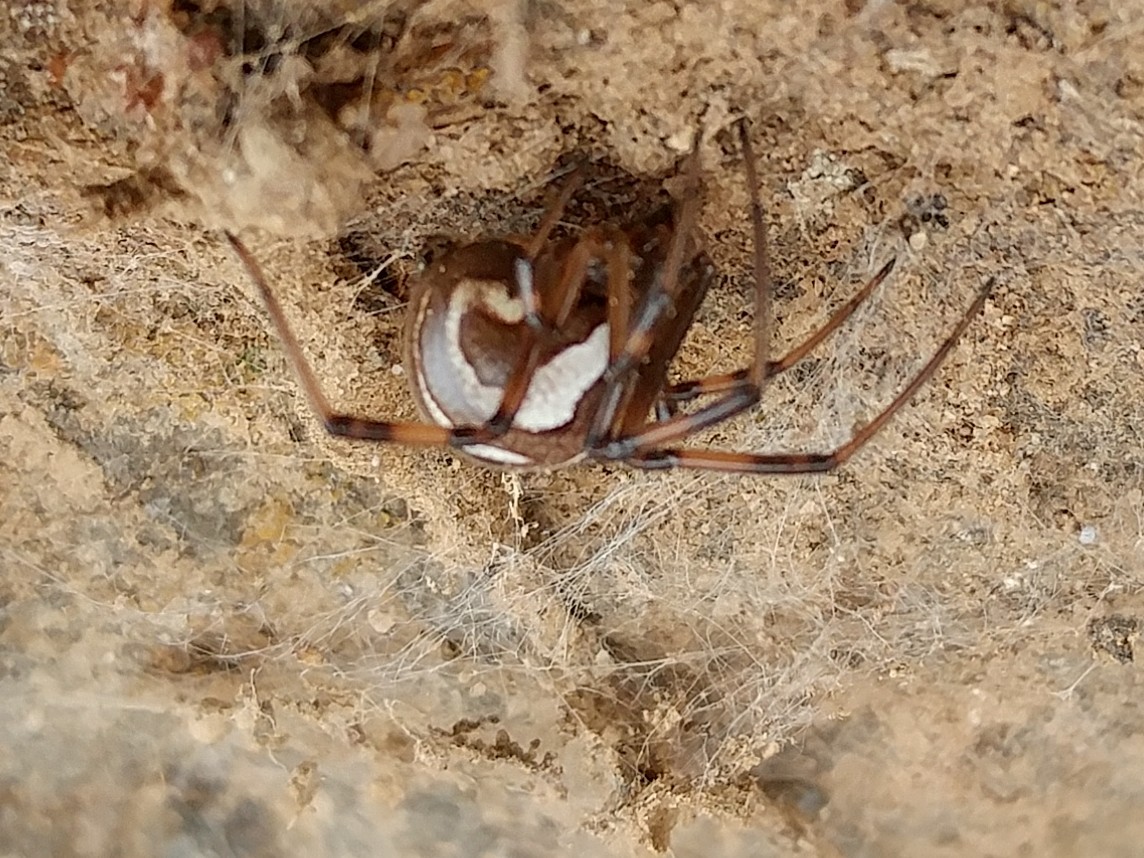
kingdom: Animalia
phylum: Arthropoda
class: Arachnida
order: Araneae
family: Theridiidae
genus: Latrodectus
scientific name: Latrodectus hesperus
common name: Western black widow
